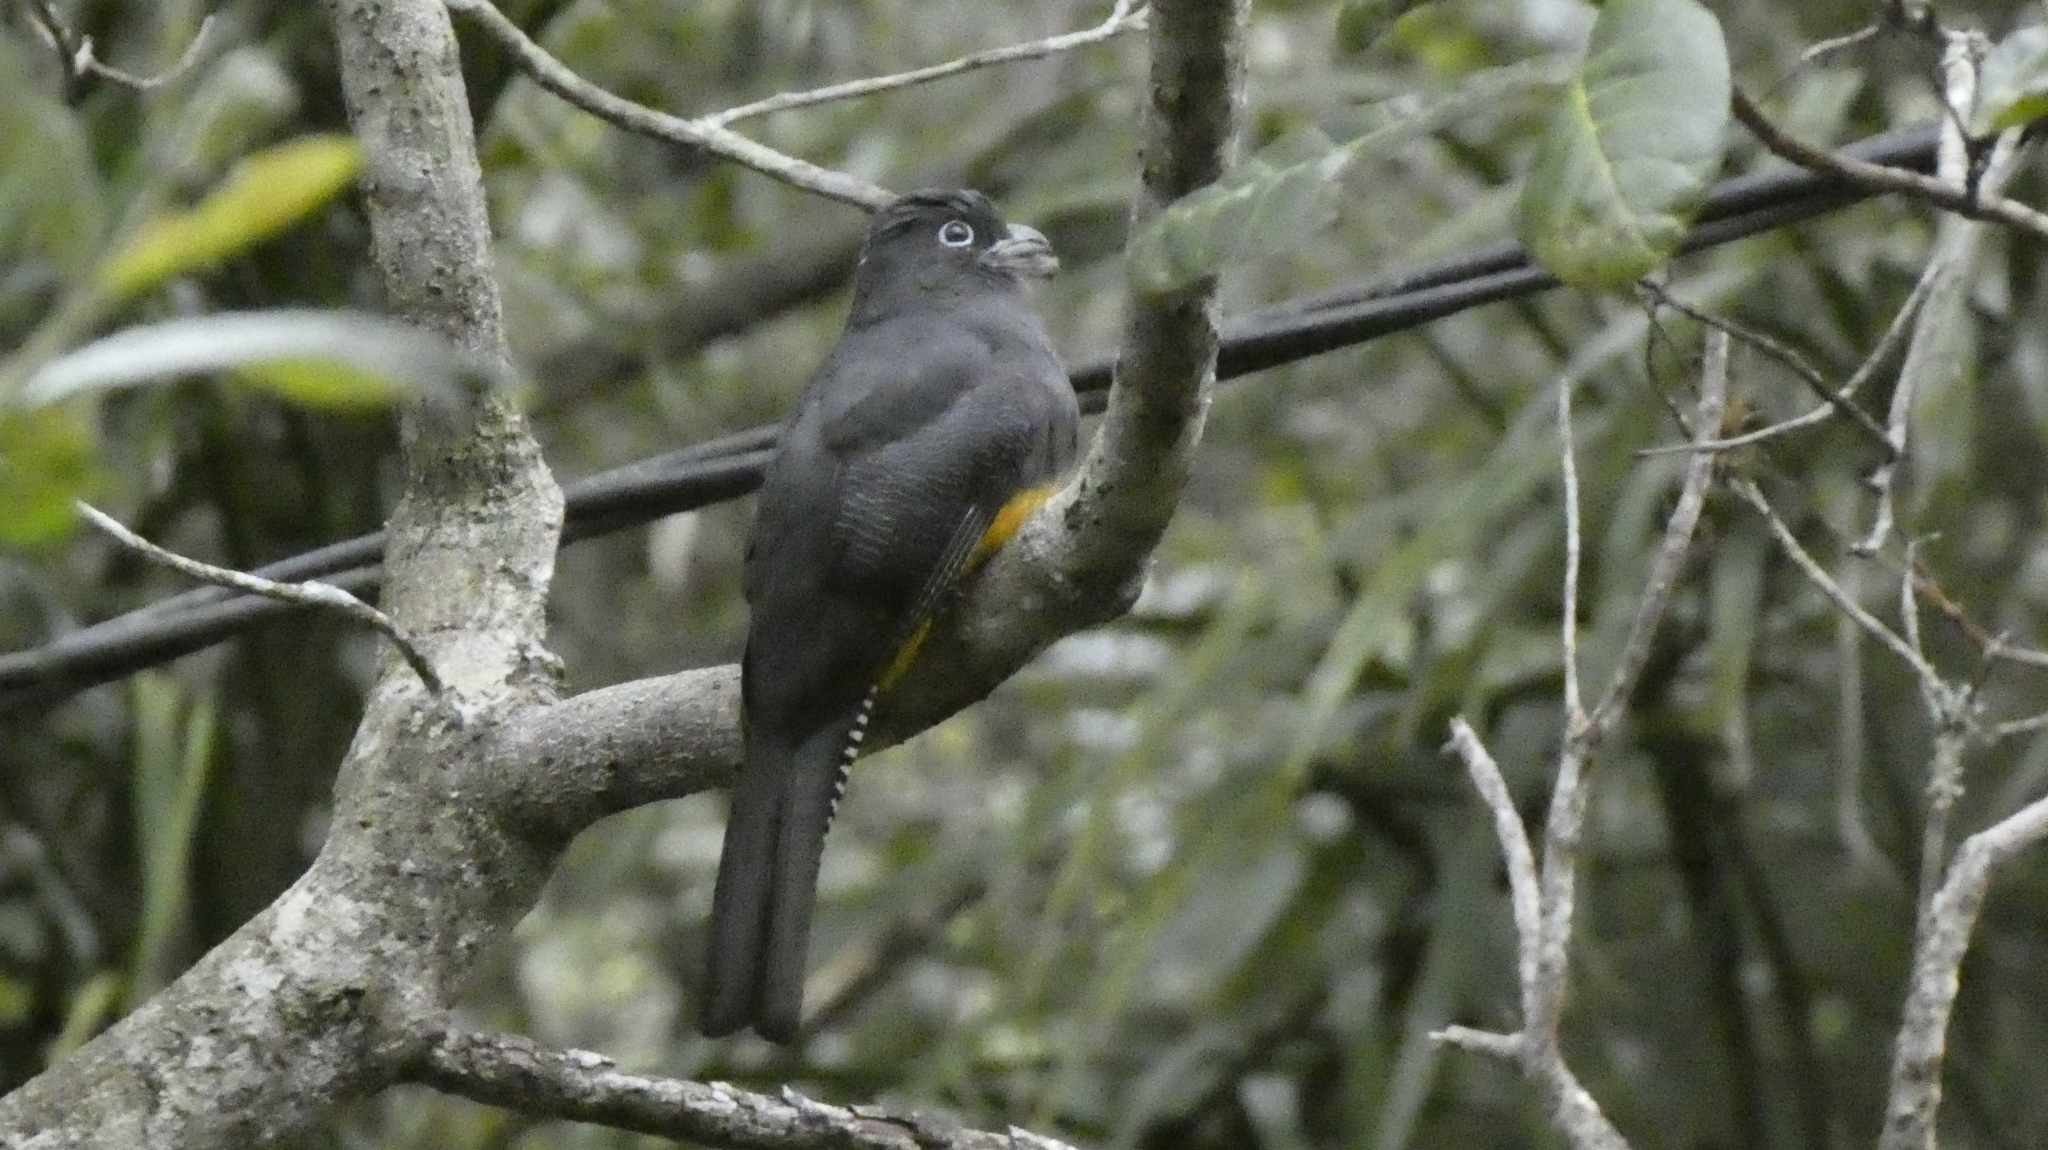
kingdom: Animalia
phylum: Chordata
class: Aves
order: Trogoniformes
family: Trogonidae
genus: Trogon
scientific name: Trogon viridis
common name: Green-backed trogon
